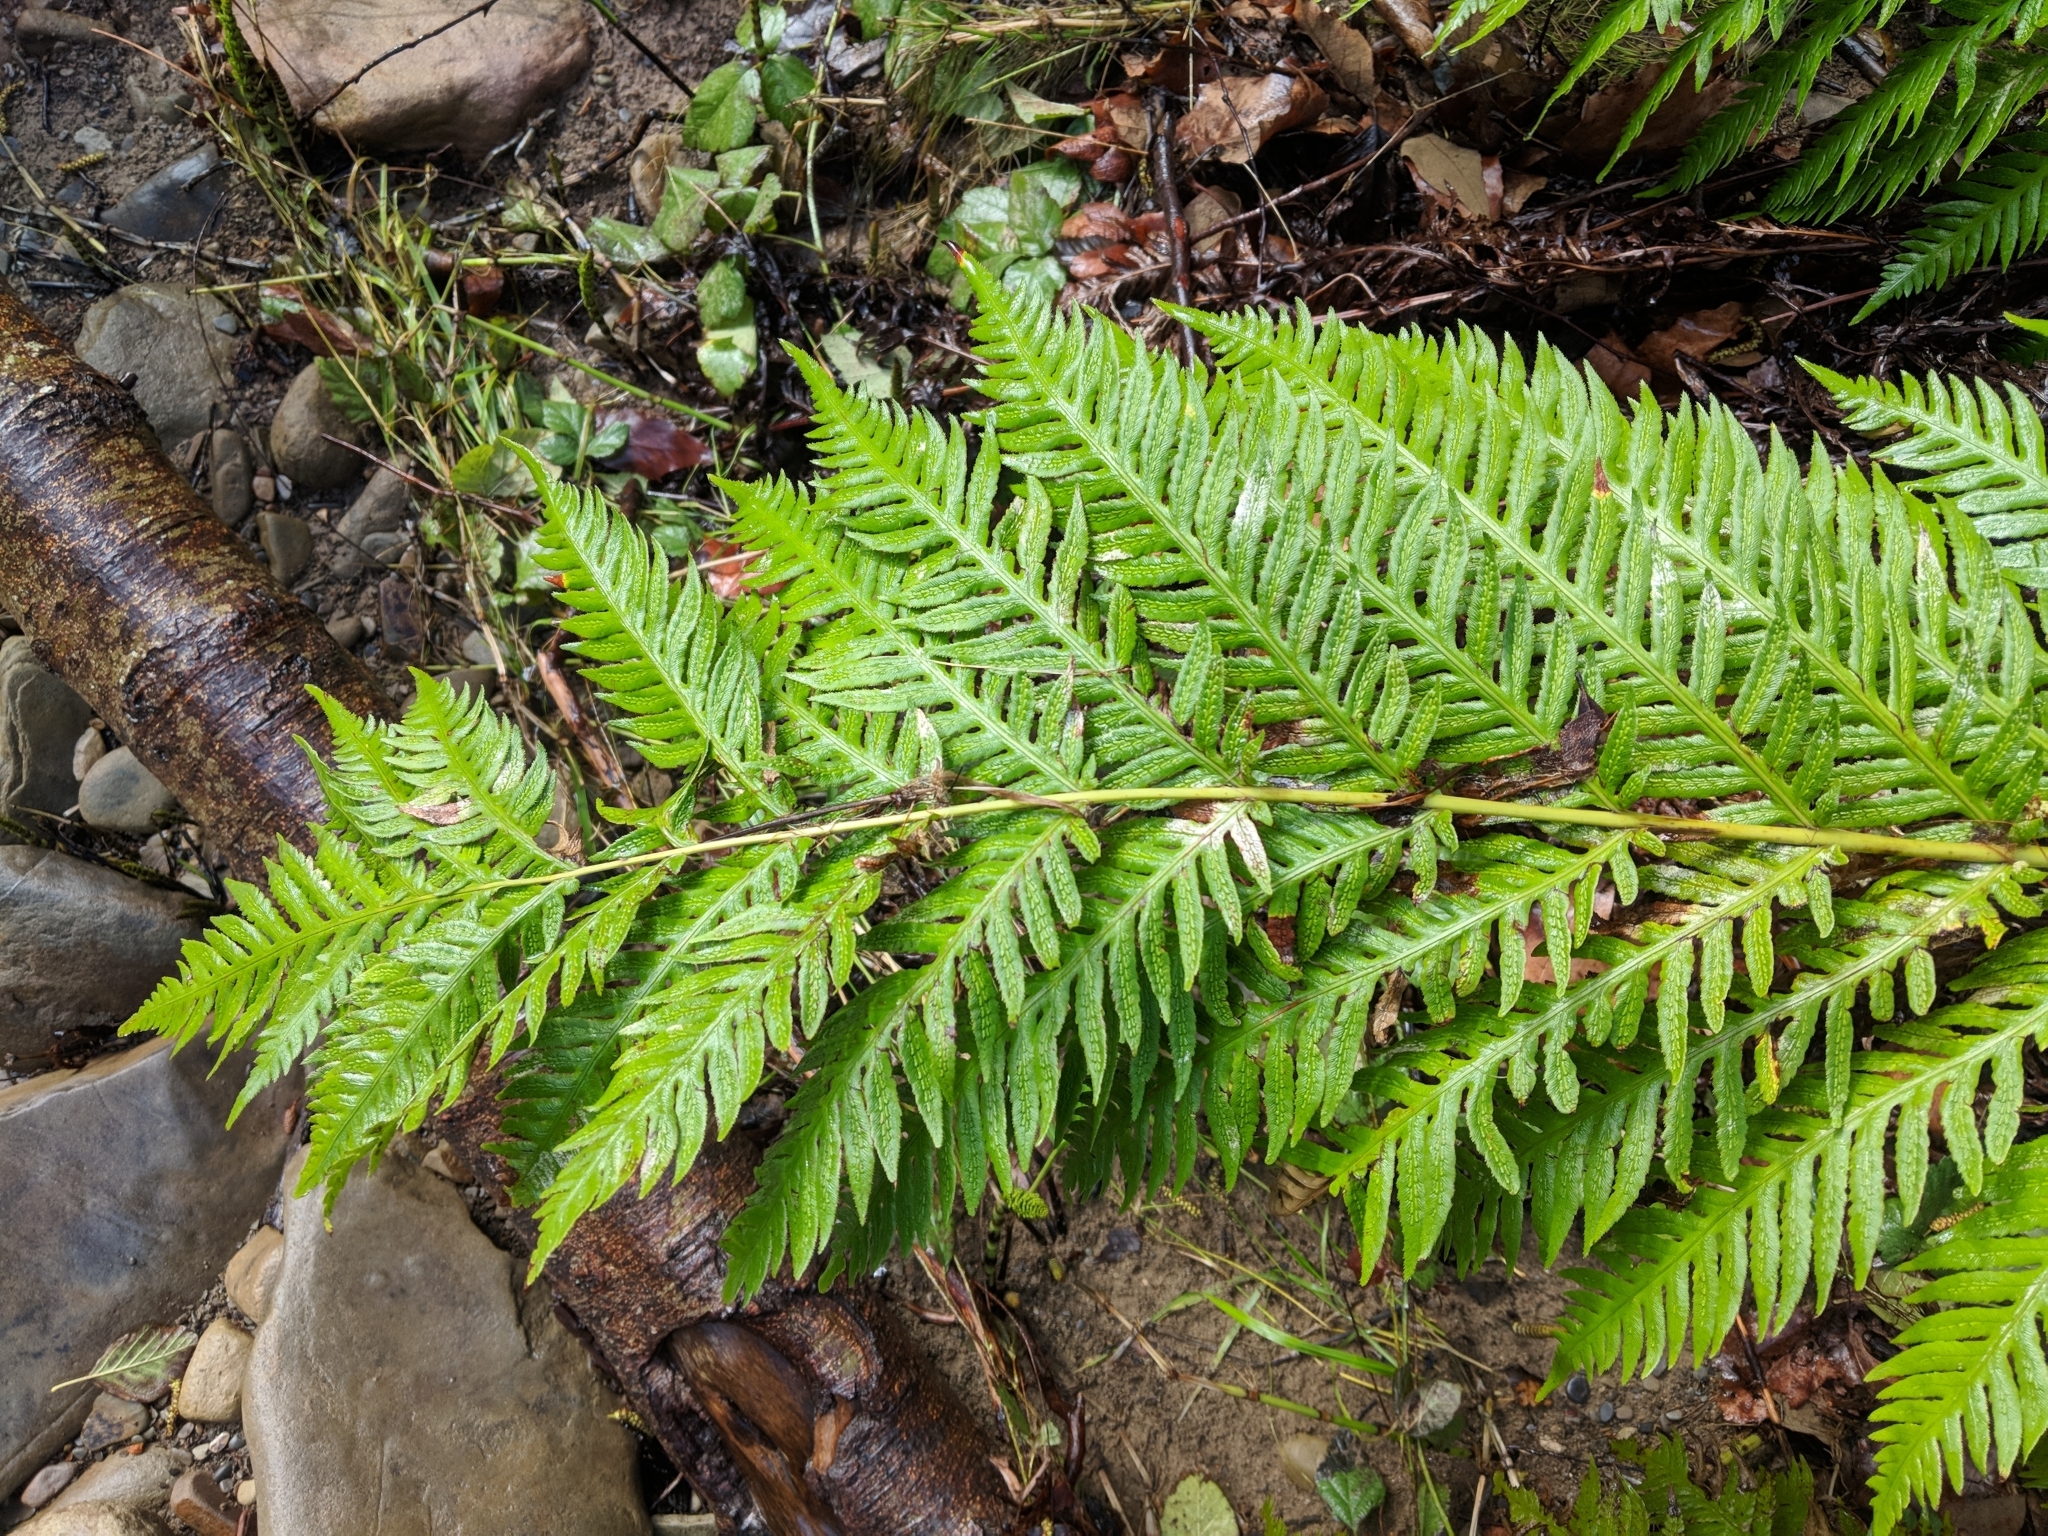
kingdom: Plantae
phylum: Tracheophyta
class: Polypodiopsida
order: Polypodiales
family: Blechnaceae
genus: Woodwardia
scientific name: Woodwardia fimbriata
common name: Giant chain fern
